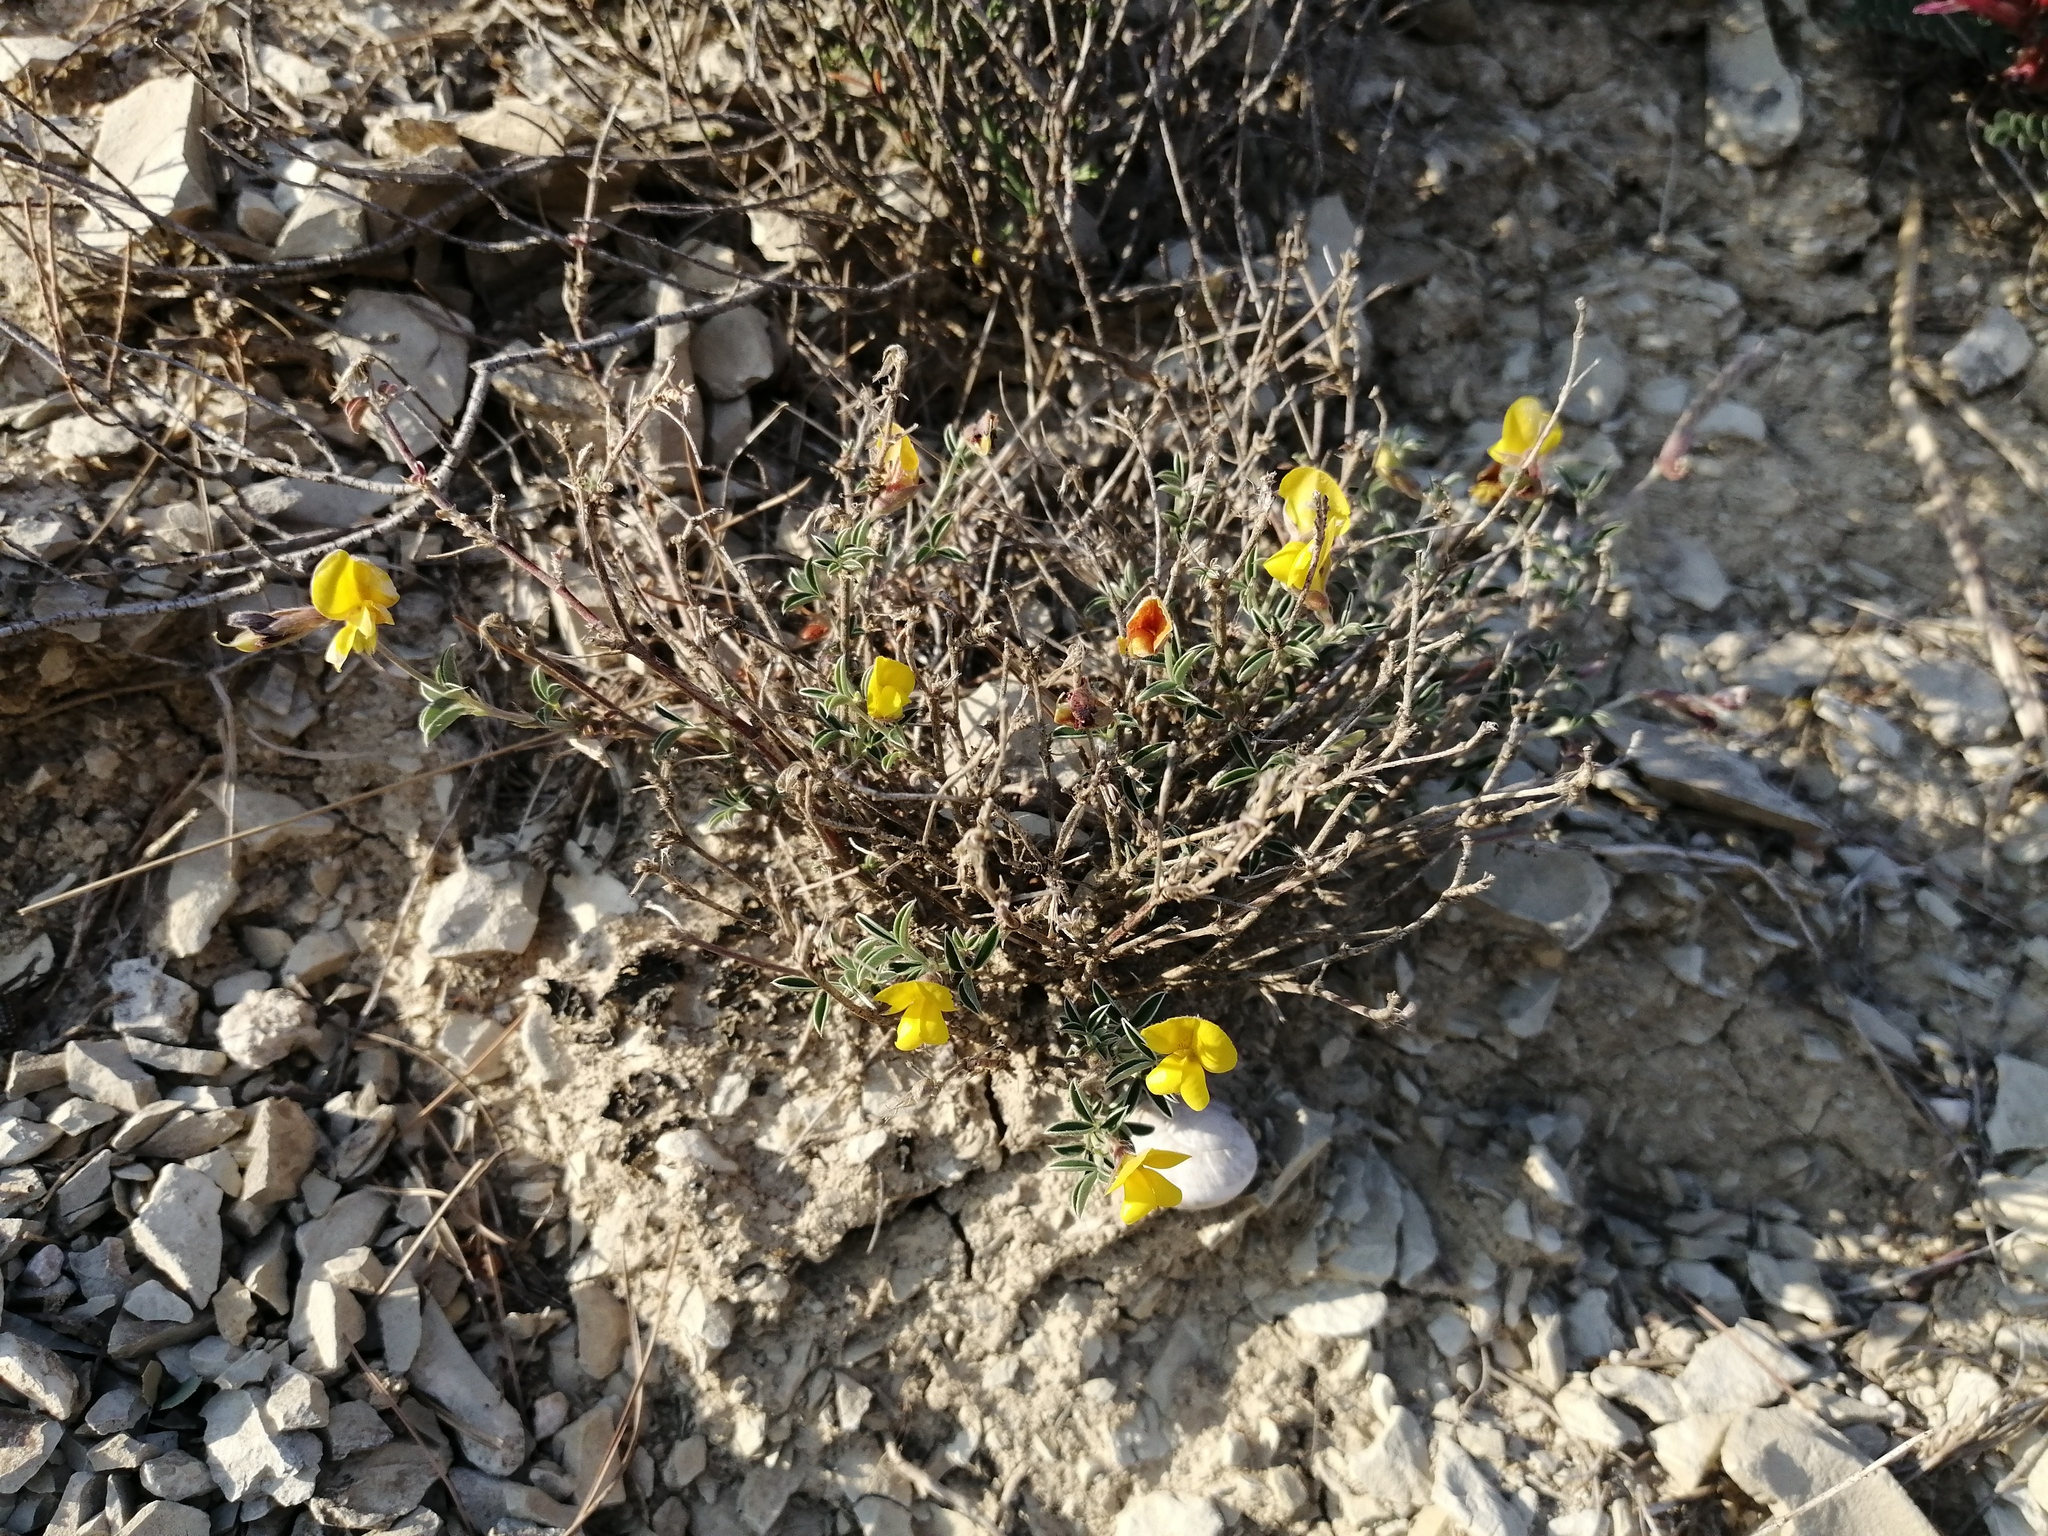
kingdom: Plantae
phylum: Tracheophyta
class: Magnoliopsida
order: Fabales
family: Fabaceae
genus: Argyrolobium
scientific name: Argyrolobium zanonii
